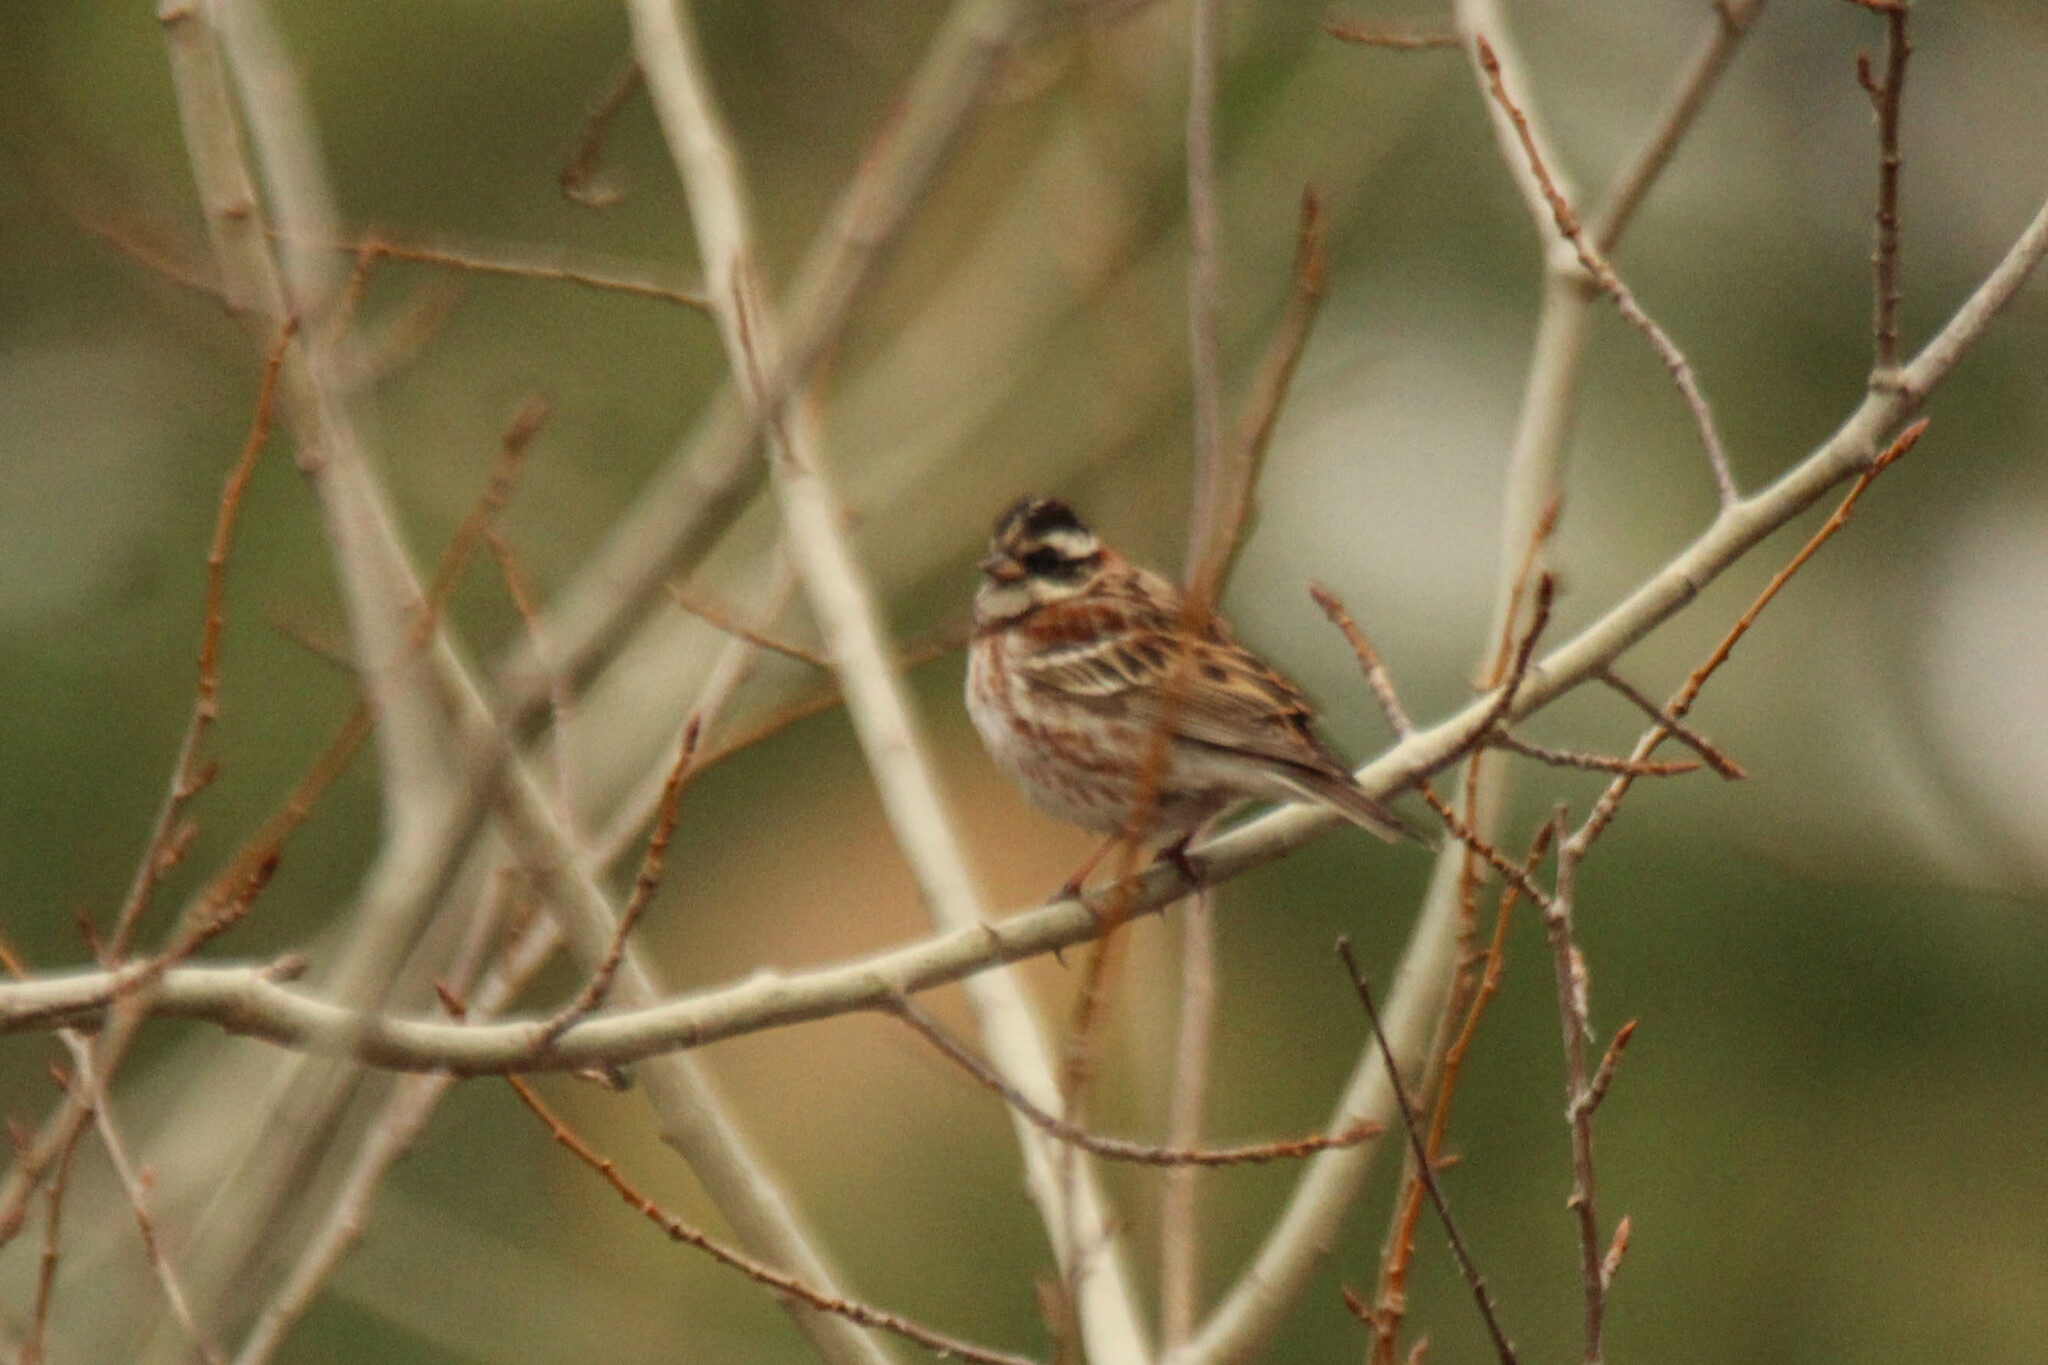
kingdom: Animalia
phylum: Chordata
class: Aves
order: Passeriformes
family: Emberizidae
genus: Emberiza
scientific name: Emberiza rustica
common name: Rustic bunting
